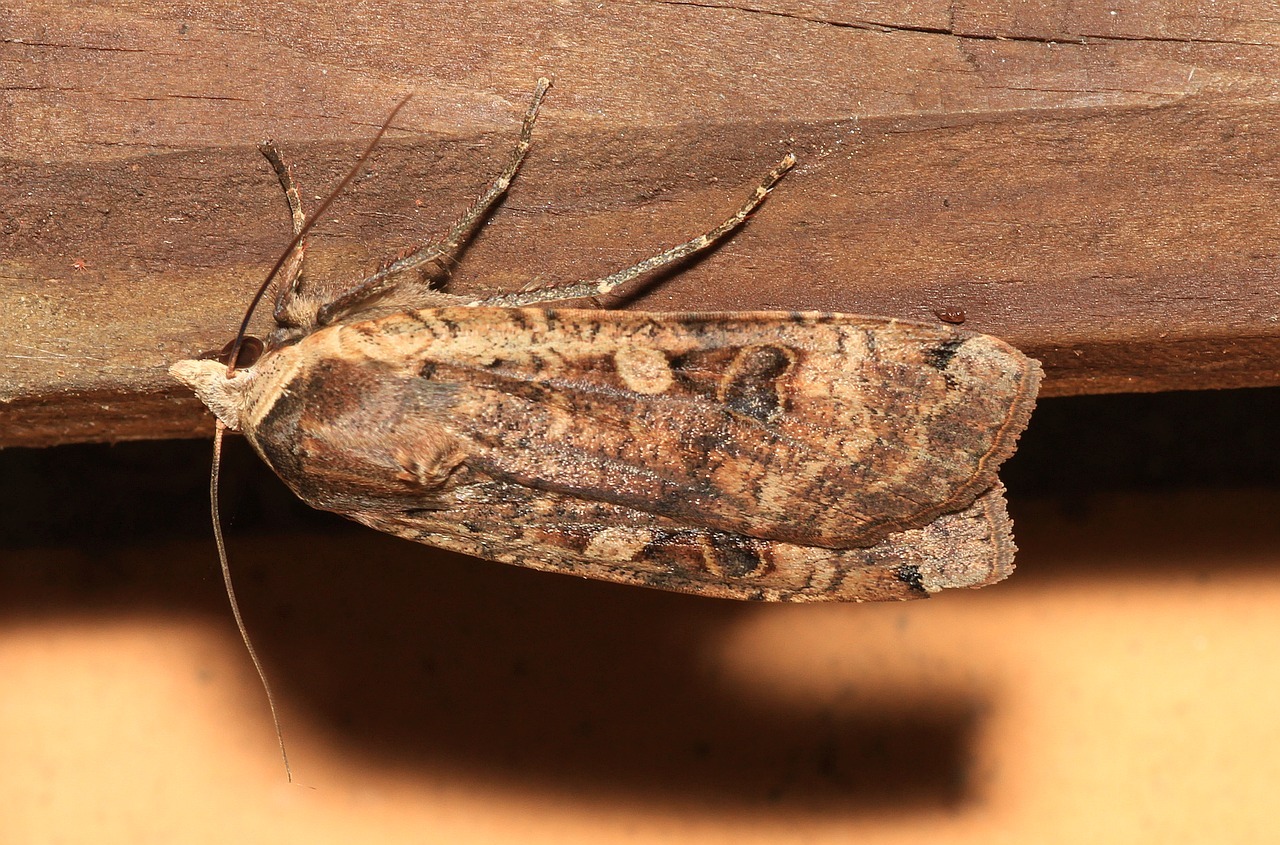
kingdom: Animalia
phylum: Arthropoda
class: Insecta
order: Lepidoptera
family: Noctuidae
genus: Noctua
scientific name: Noctua pronuba
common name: Large yellow underwing
